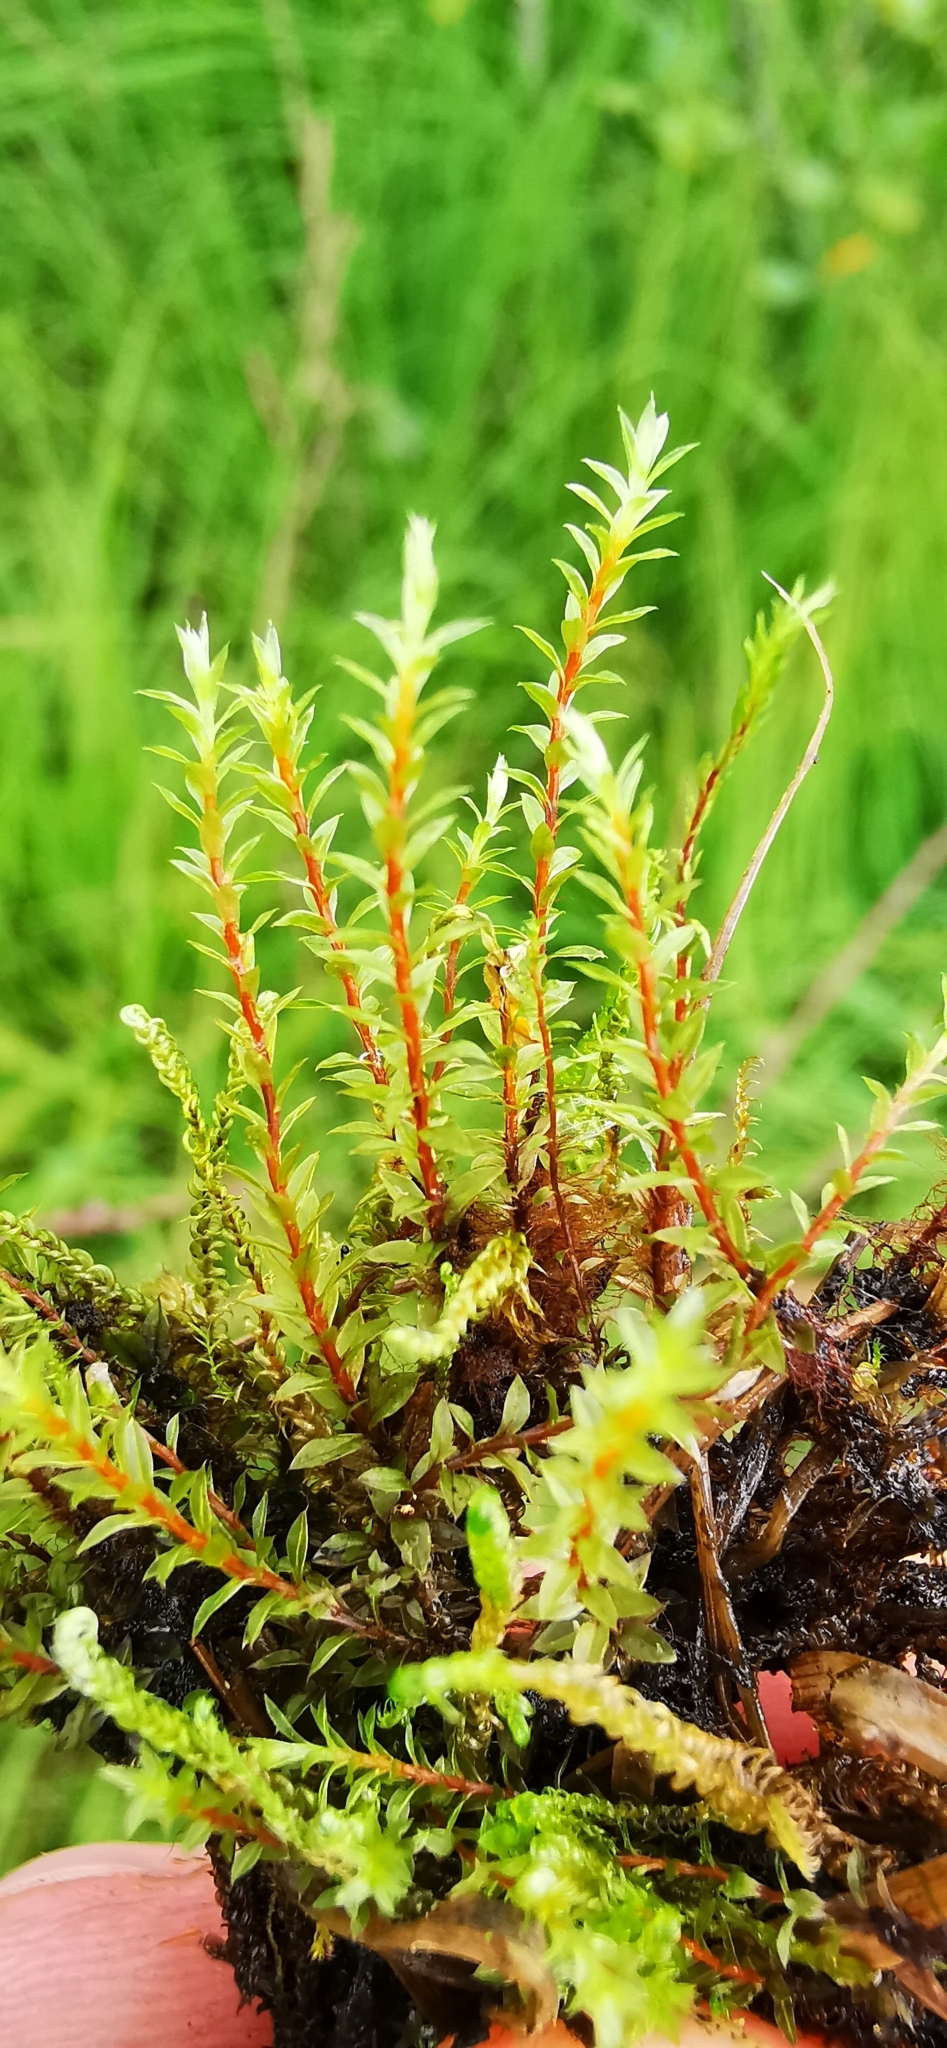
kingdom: Plantae
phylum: Bryophyta
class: Bryopsida
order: Bryales
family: Bryaceae
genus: Ptychostomum
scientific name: Ptychostomum pseudotriquetrum
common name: Long-leaved thread moss
